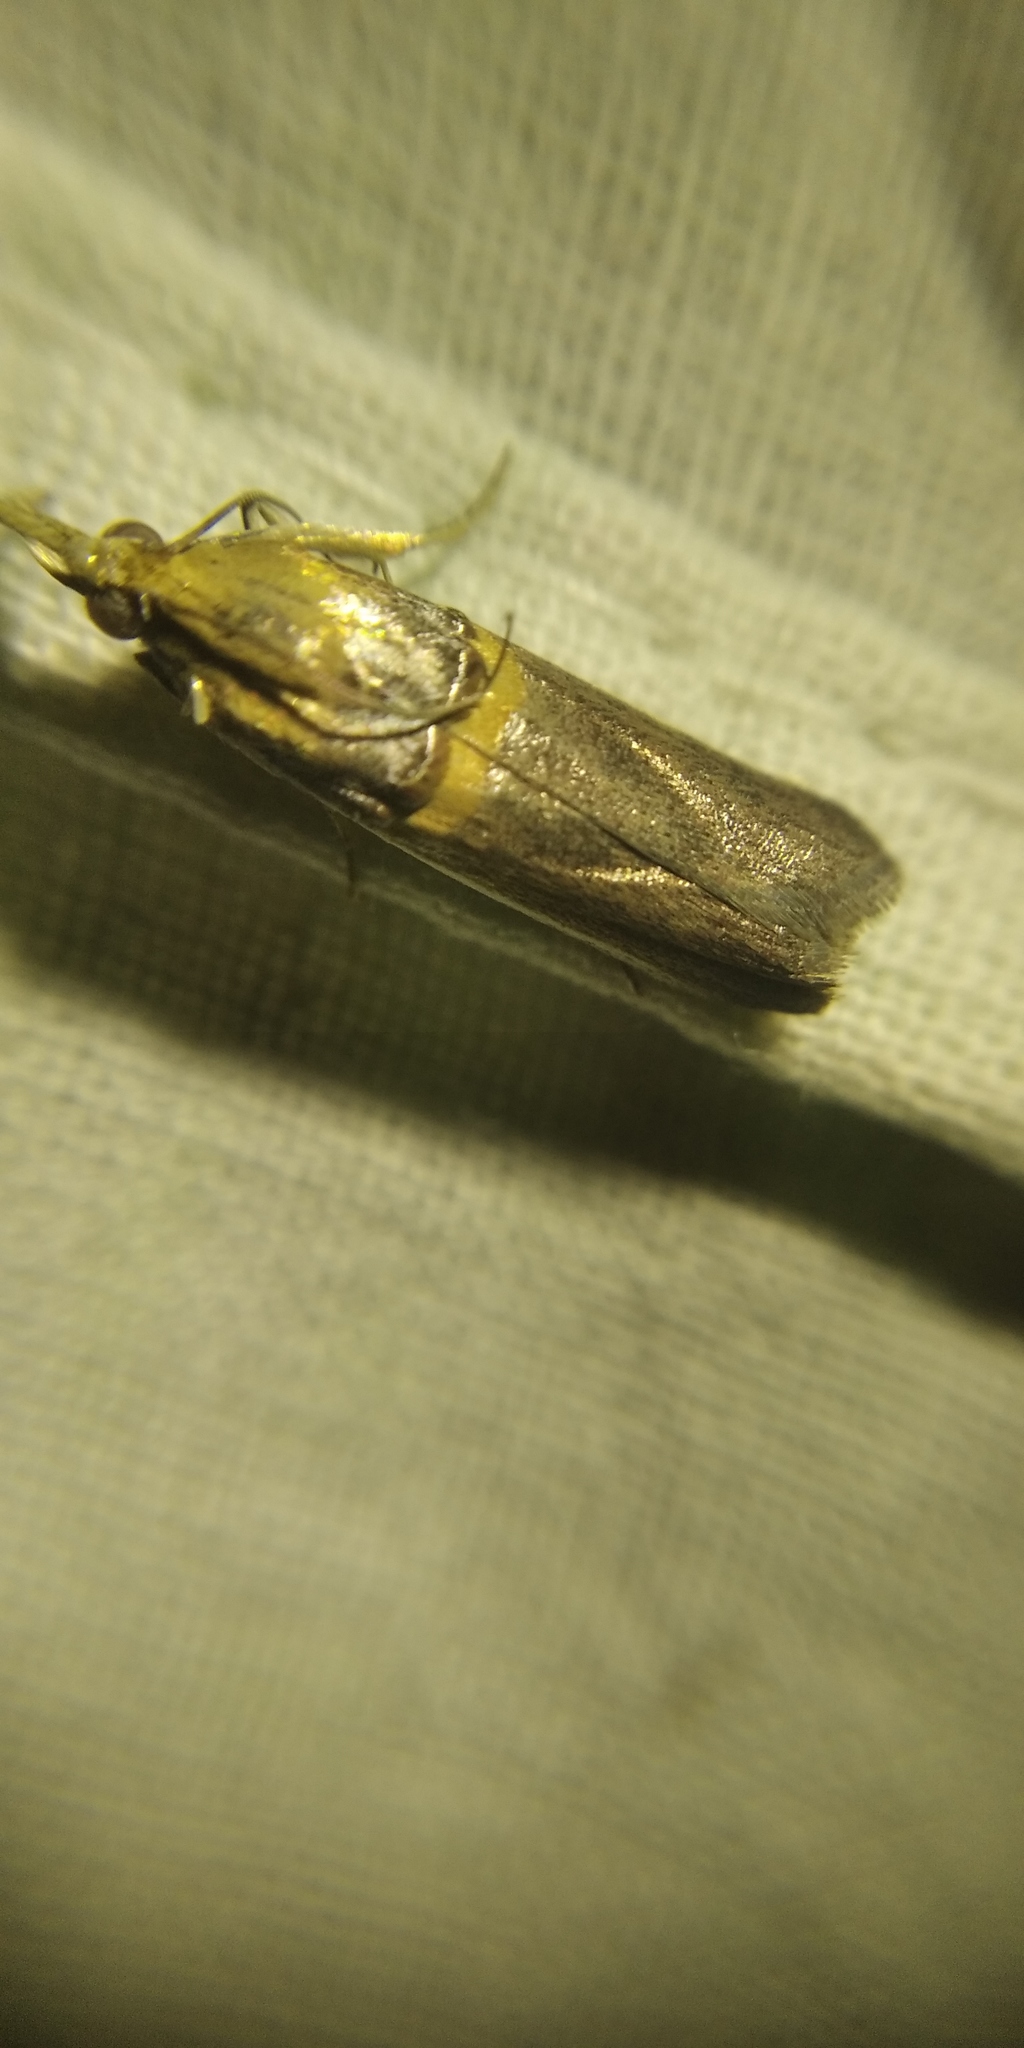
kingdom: Animalia
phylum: Arthropoda
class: Insecta
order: Lepidoptera
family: Pyralidae
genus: Etiella
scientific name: Etiella zinckenella
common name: Gold-banded etiella moth
